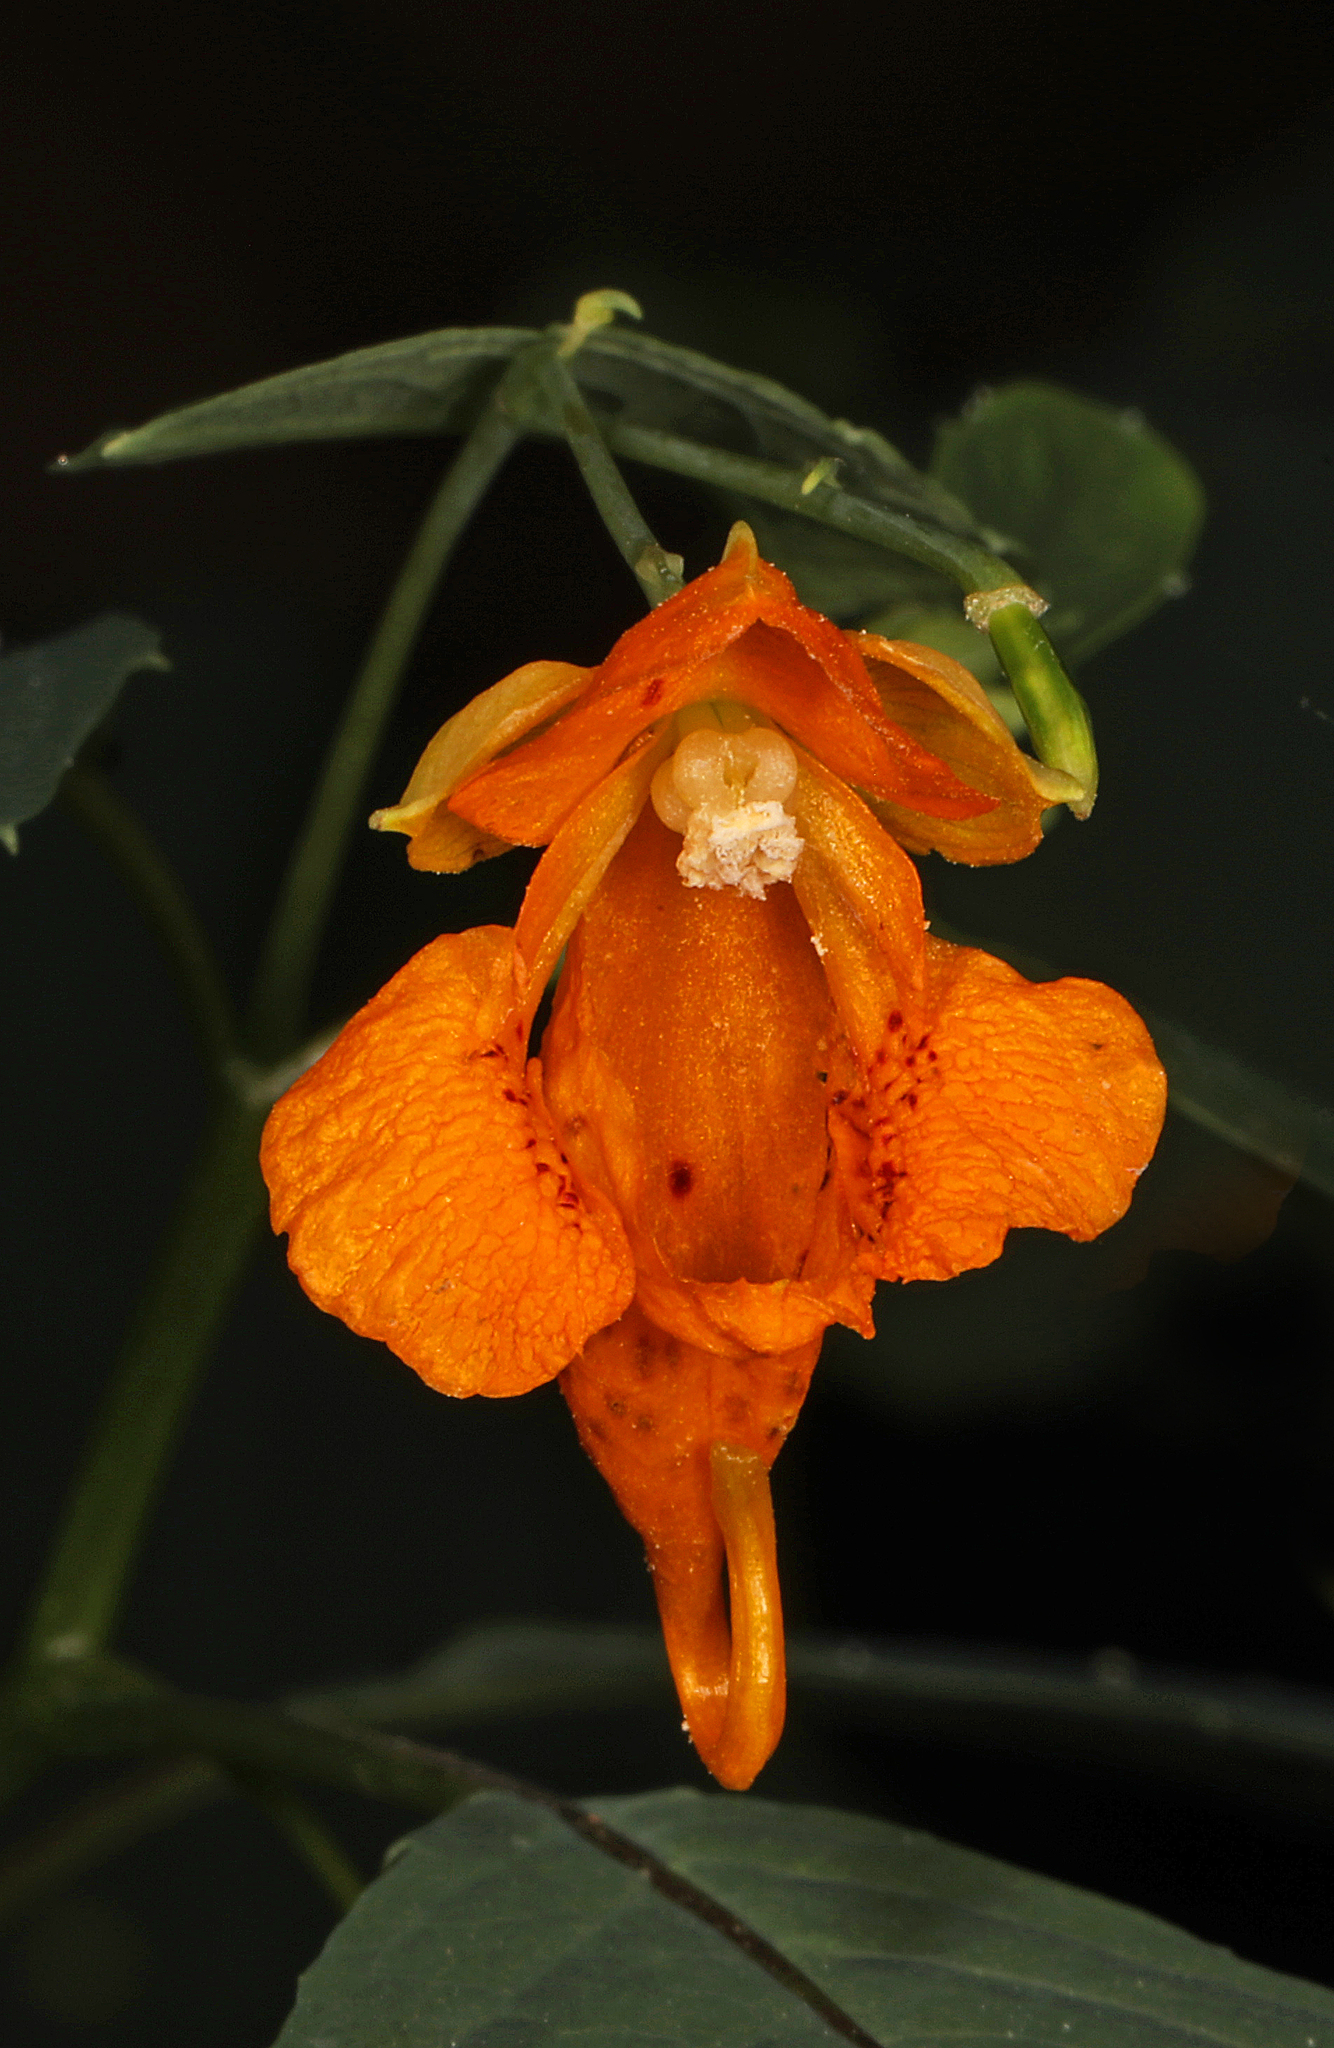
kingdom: Plantae
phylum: Tracheophyta
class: Magnoliopsida
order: Ericales
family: Balsaminaceae
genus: Impatiens
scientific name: Impatiens capensis
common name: Orange balsam
